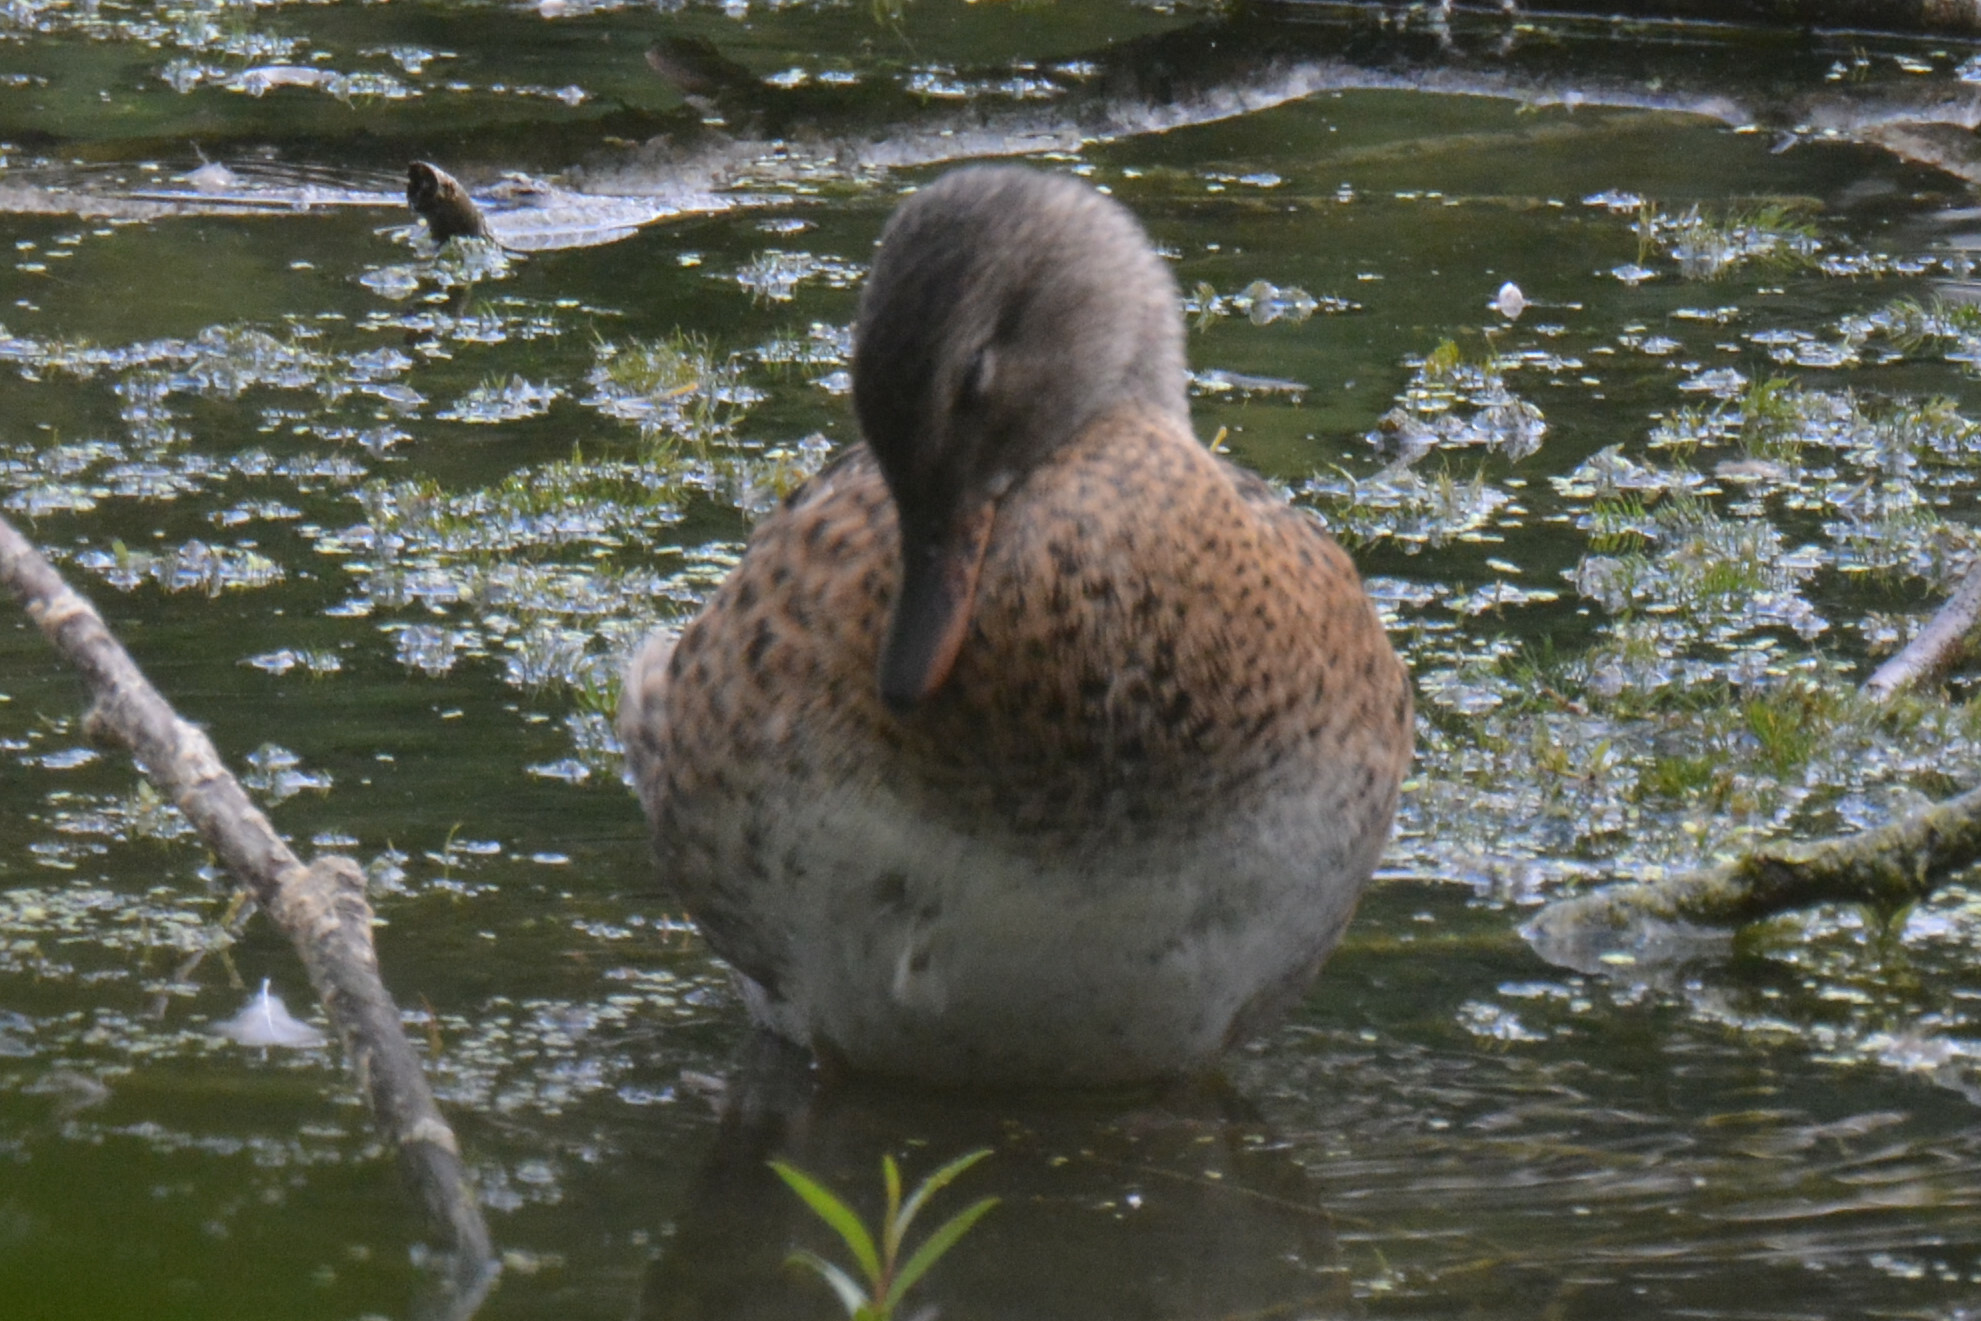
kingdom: Animalia
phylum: Chordata
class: Aves
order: Anseriformes
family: Anatidae
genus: Mareca
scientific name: Mareca strepera
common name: Gadwall
